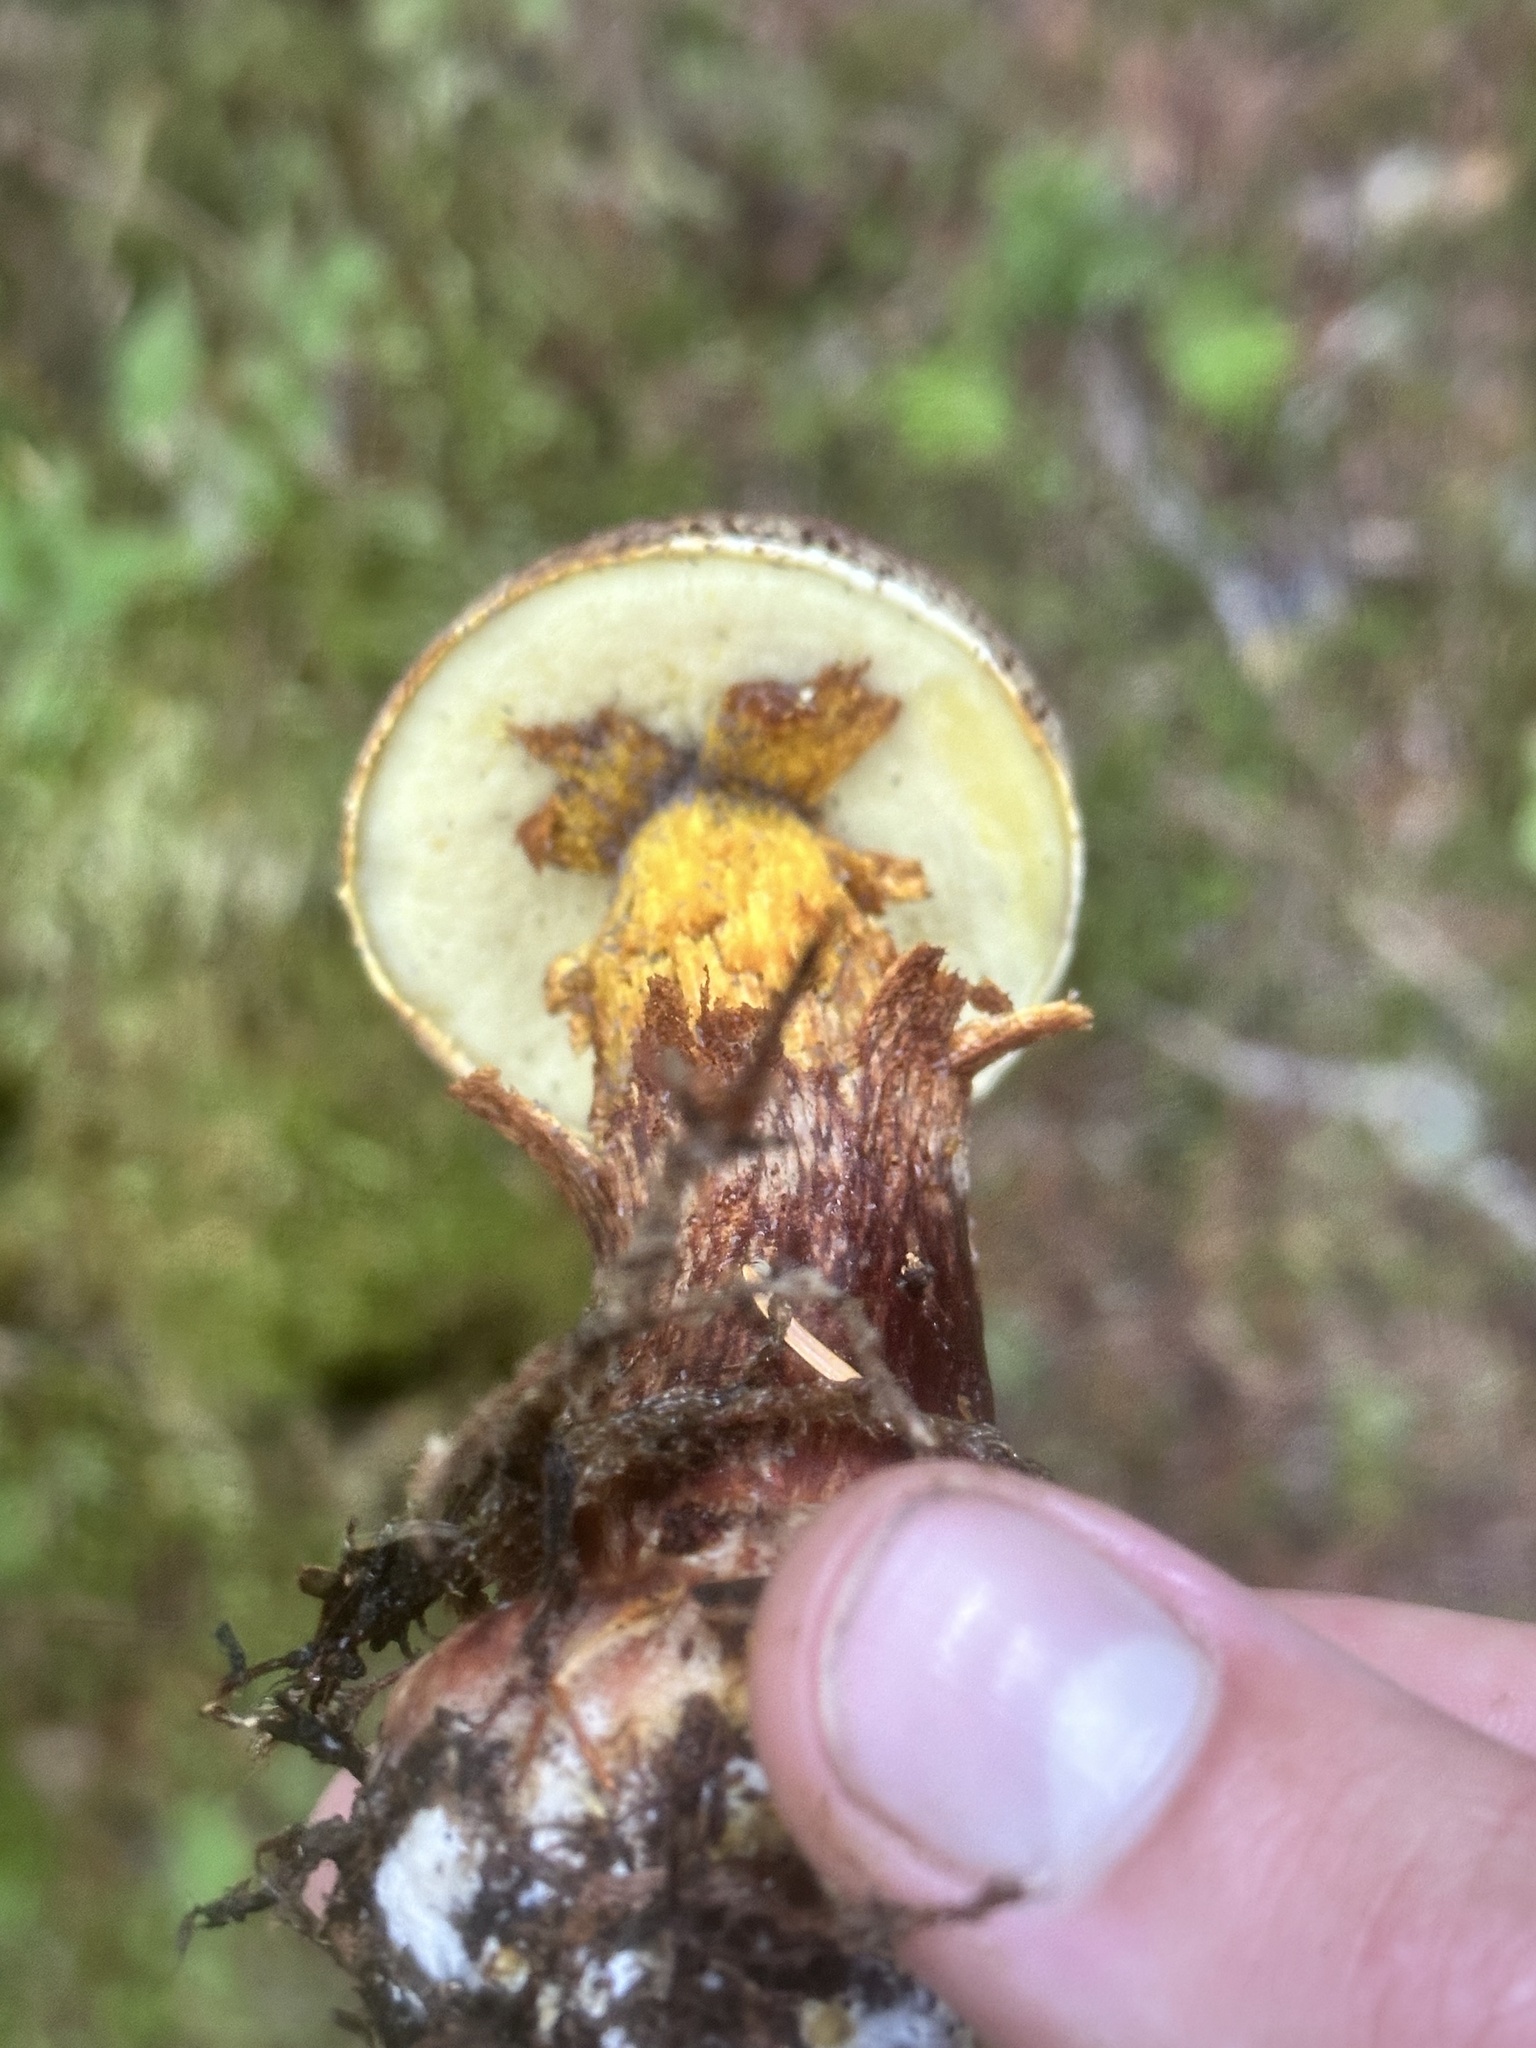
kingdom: Fungi
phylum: Basidiomycota
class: Agaricomycetes
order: Boletales
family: Boletaceae
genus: Aureoboletus
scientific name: Aureoboletus mirabilis
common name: Admirable bolete
